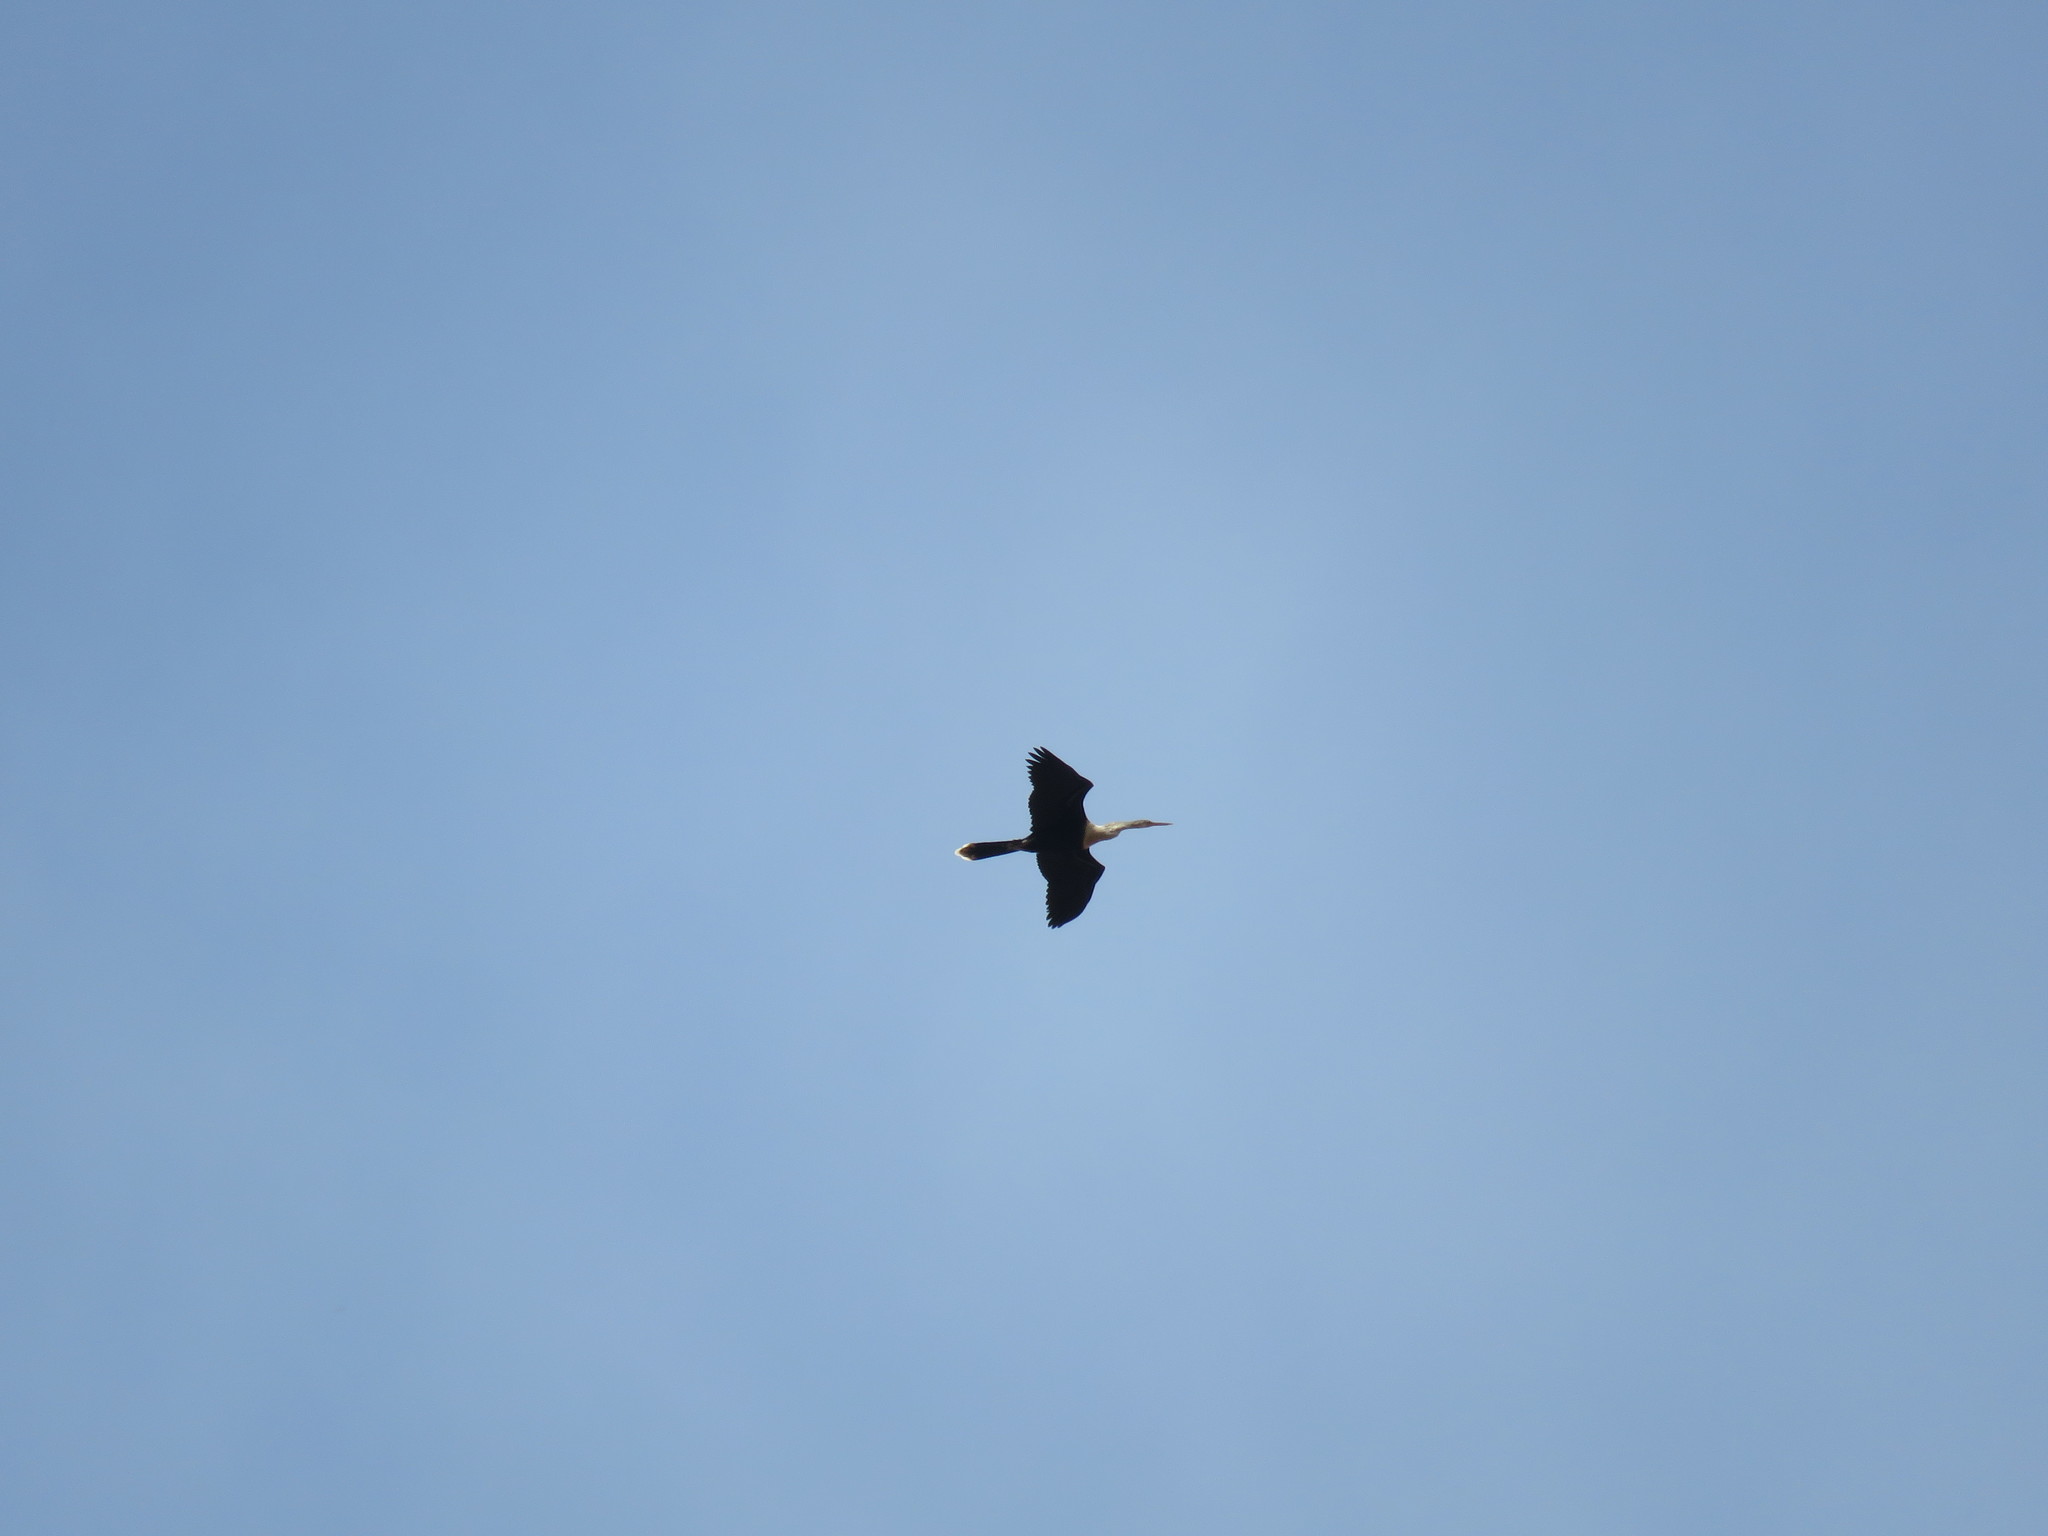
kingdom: Animalia
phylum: Chordata
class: Aves
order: Suliformes
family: Anhingidae
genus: Anhinga
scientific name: Anhinga anhinga
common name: Anhinga
